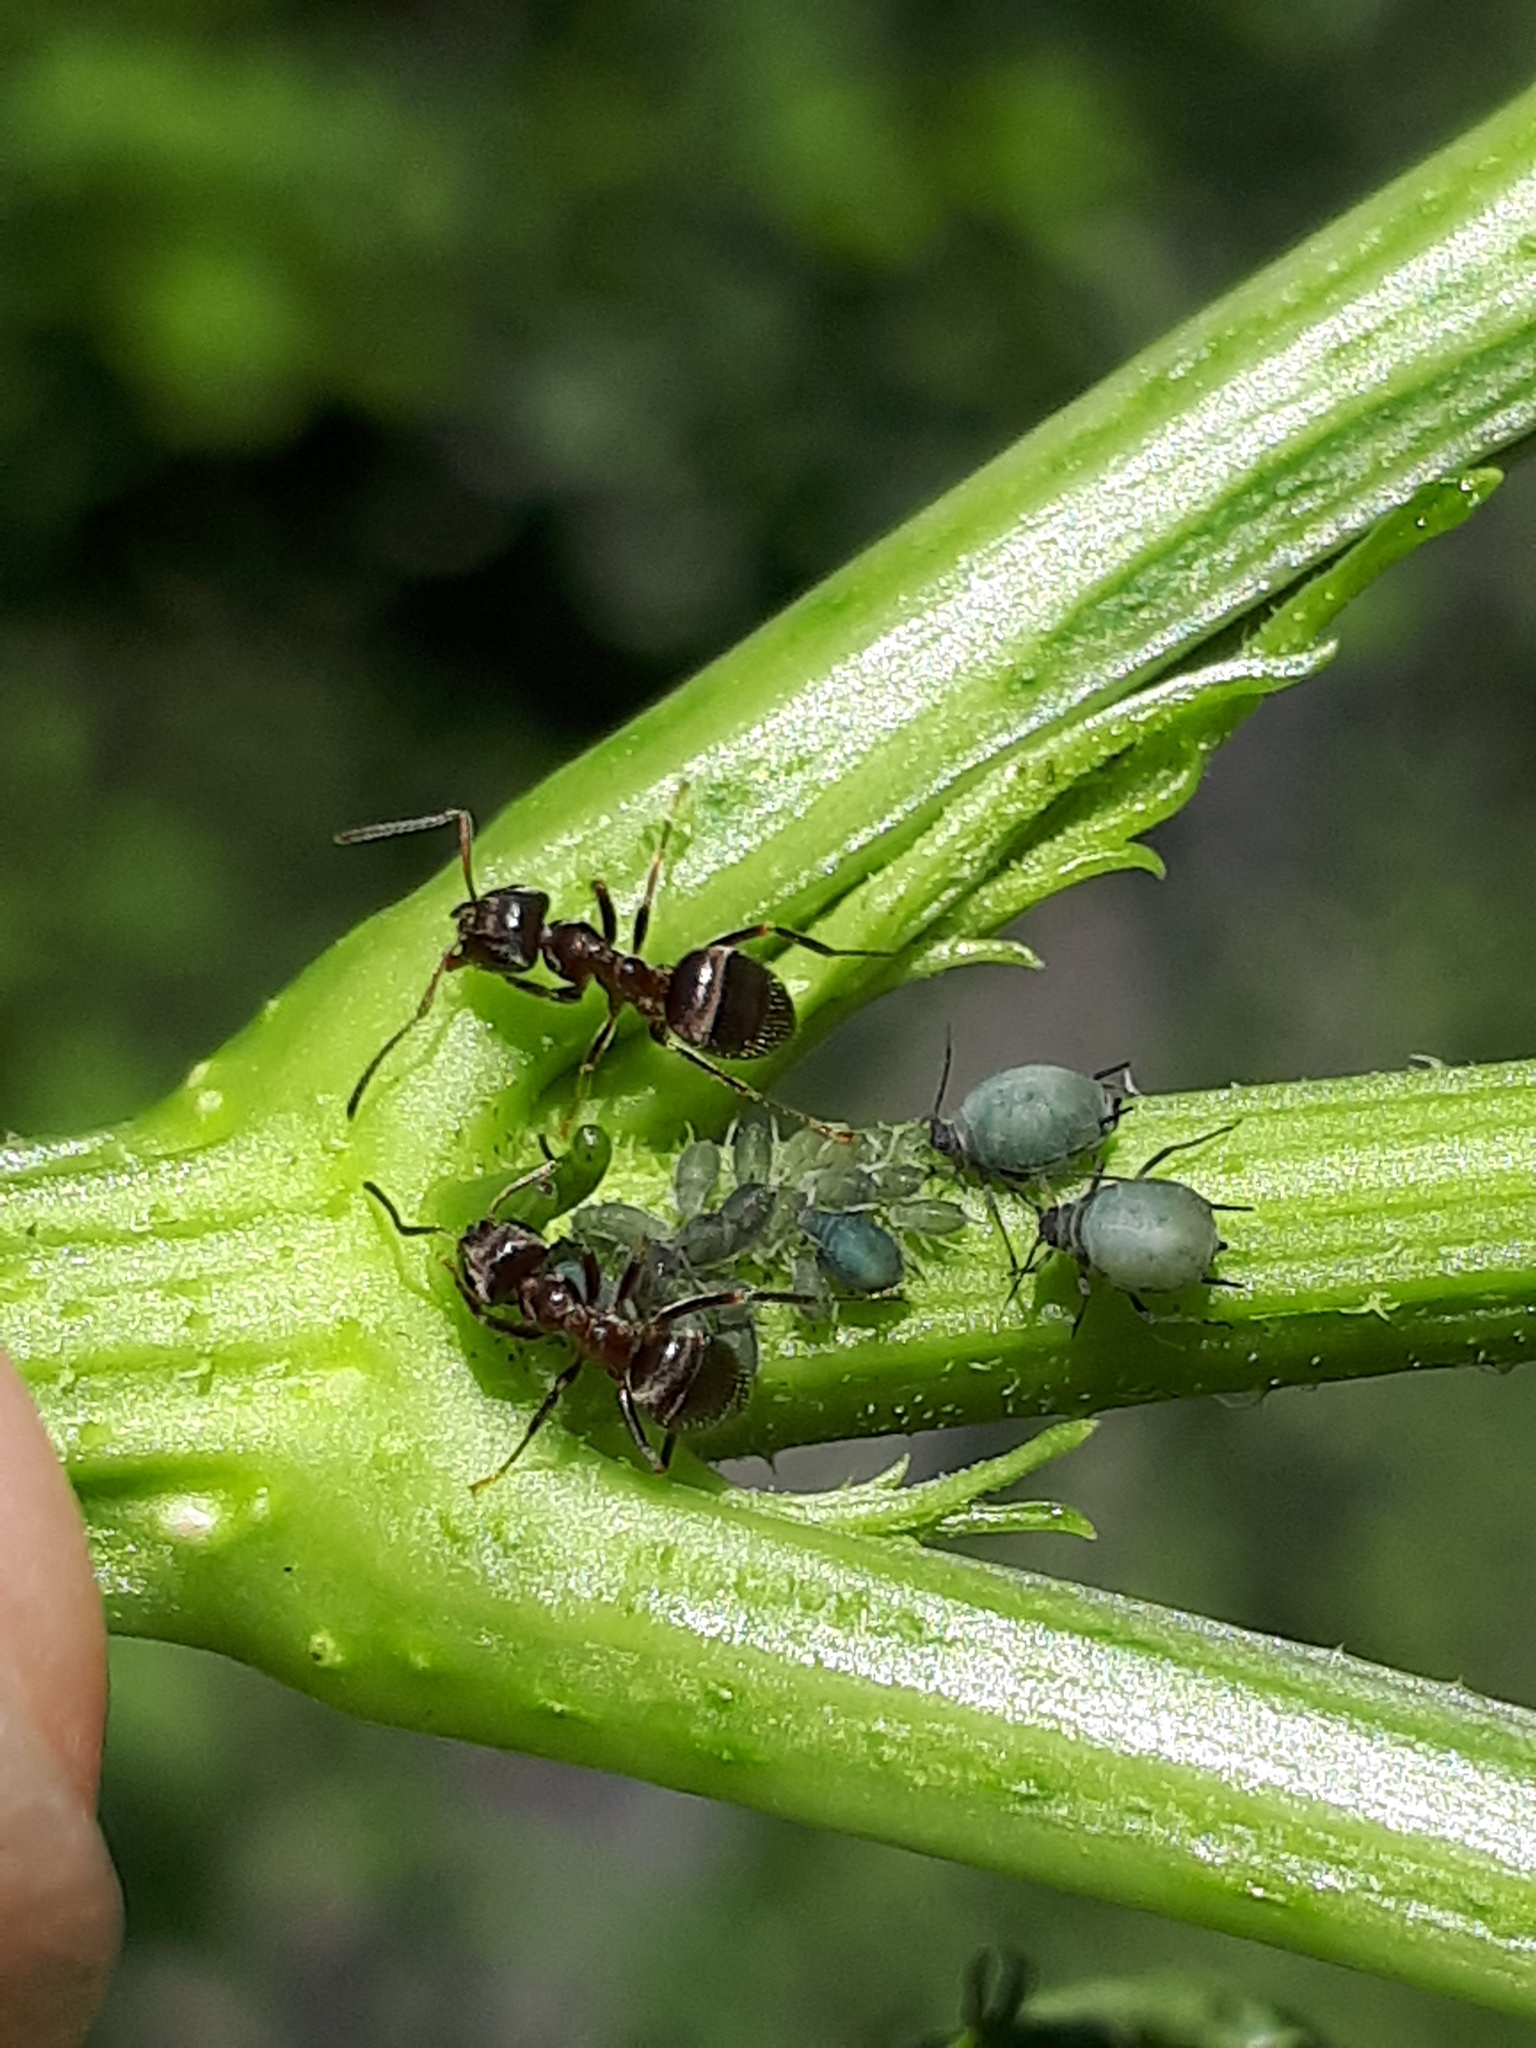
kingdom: Animalia
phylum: Arthropoda
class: Insecta
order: Hymenoptera
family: Formicidae
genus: Lasius
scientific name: Lasius
